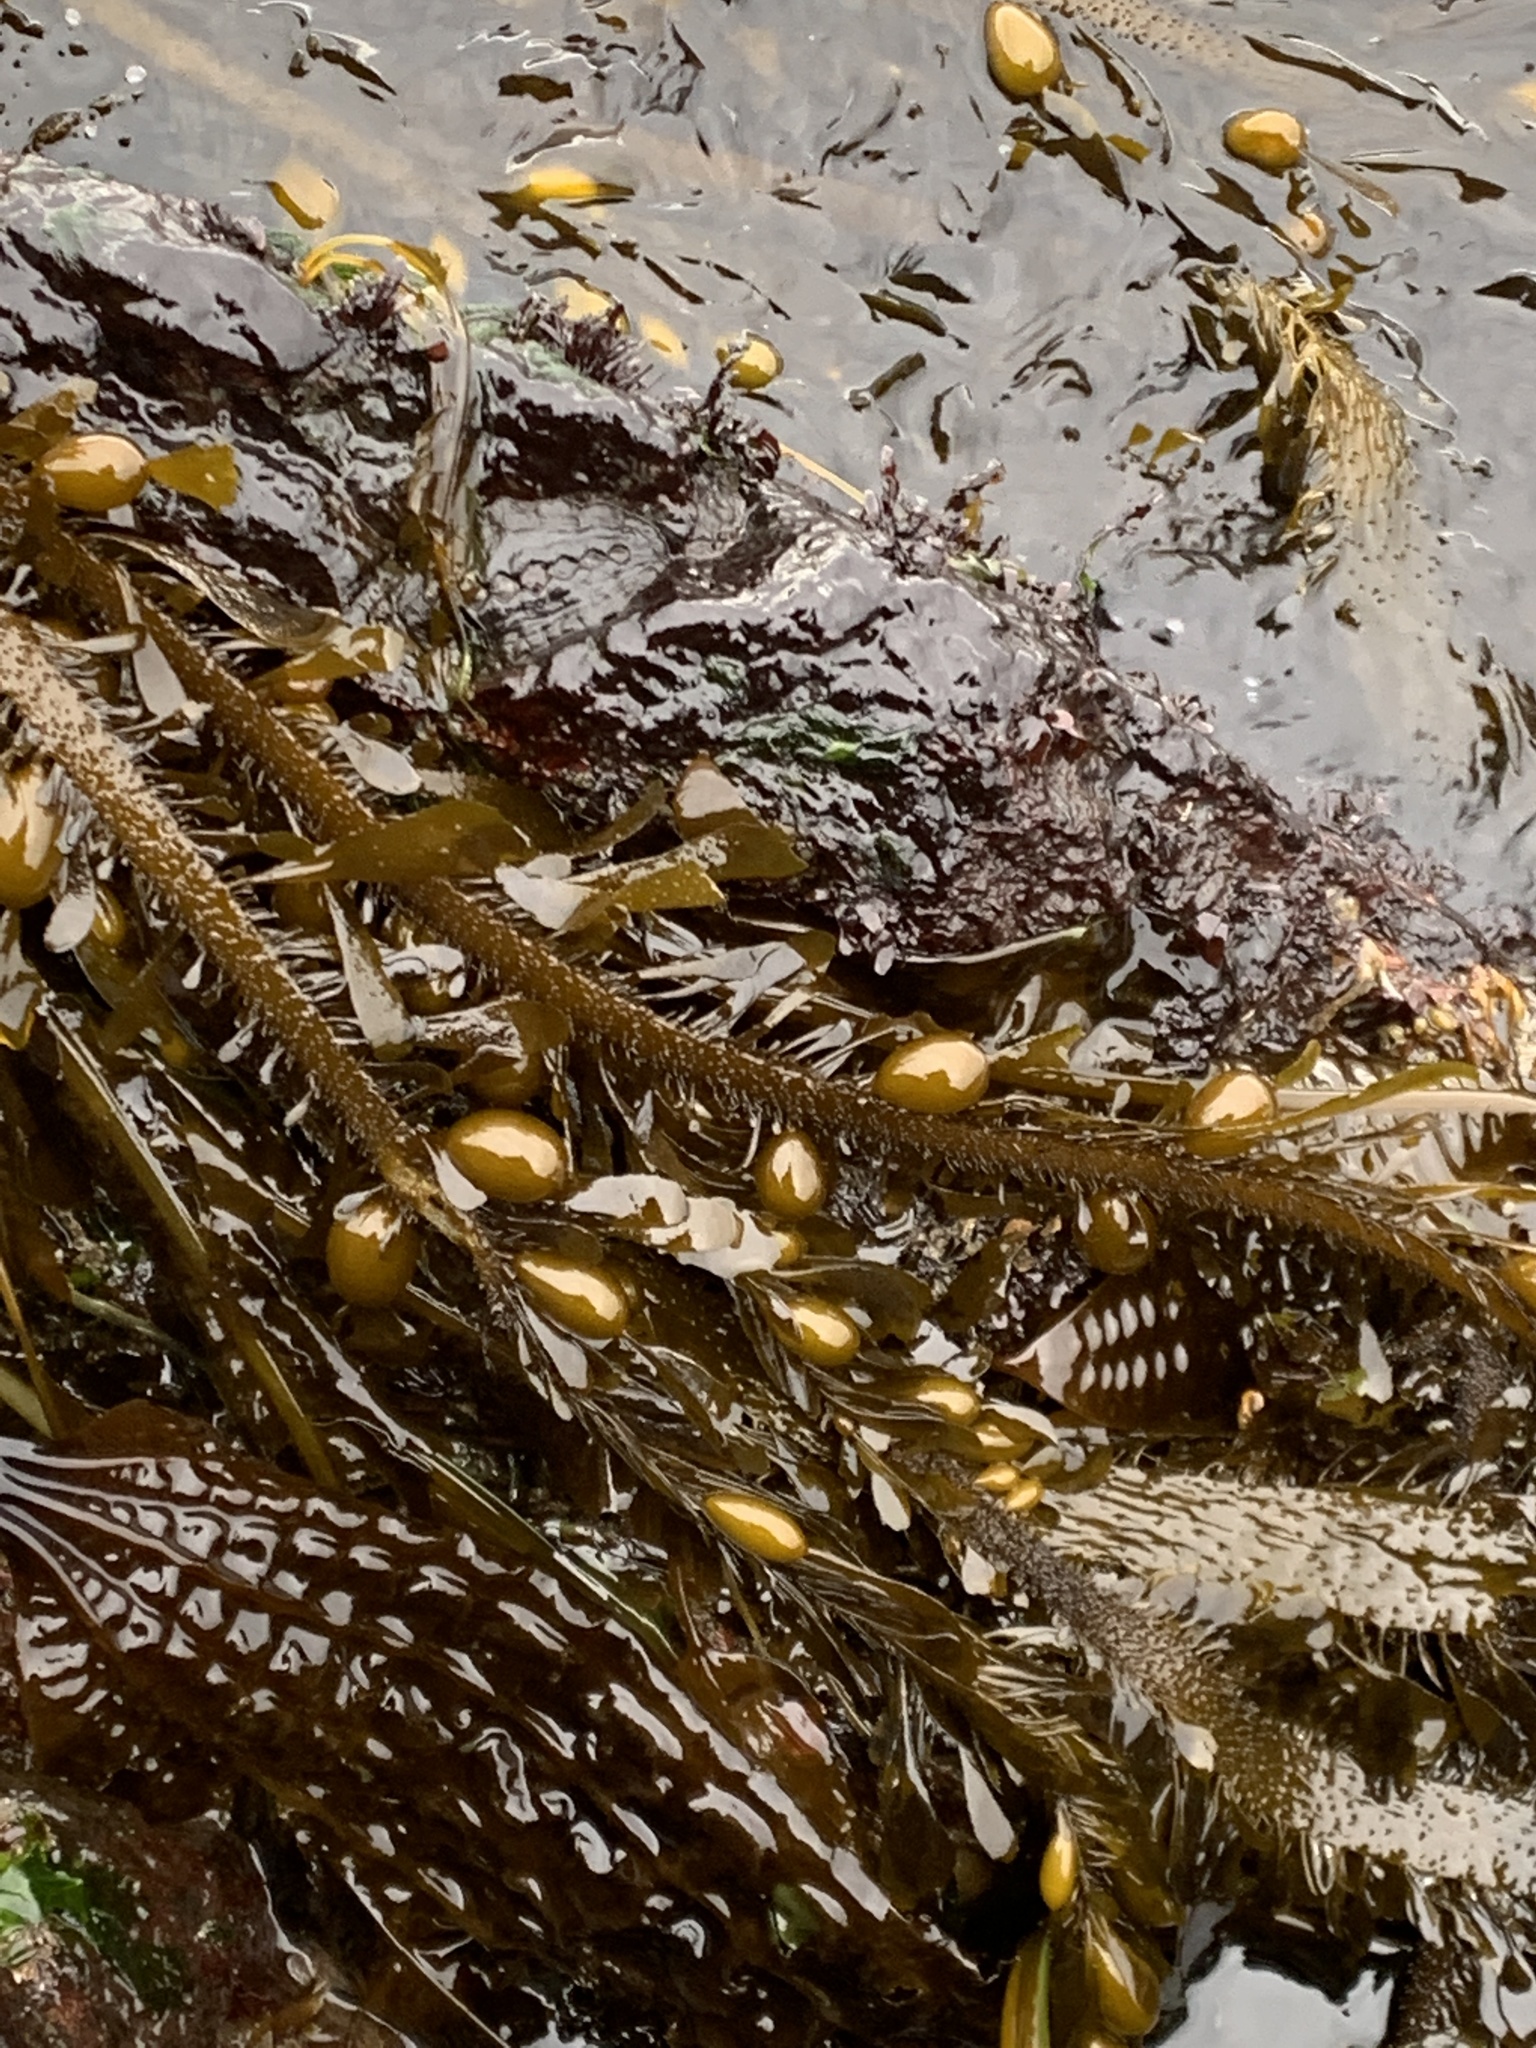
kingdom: Chromista
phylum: Ochrophyta
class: Phaeophyceae
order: Laminariales
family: Lessoniaceae
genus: Egregia
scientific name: Egregia menziesii
